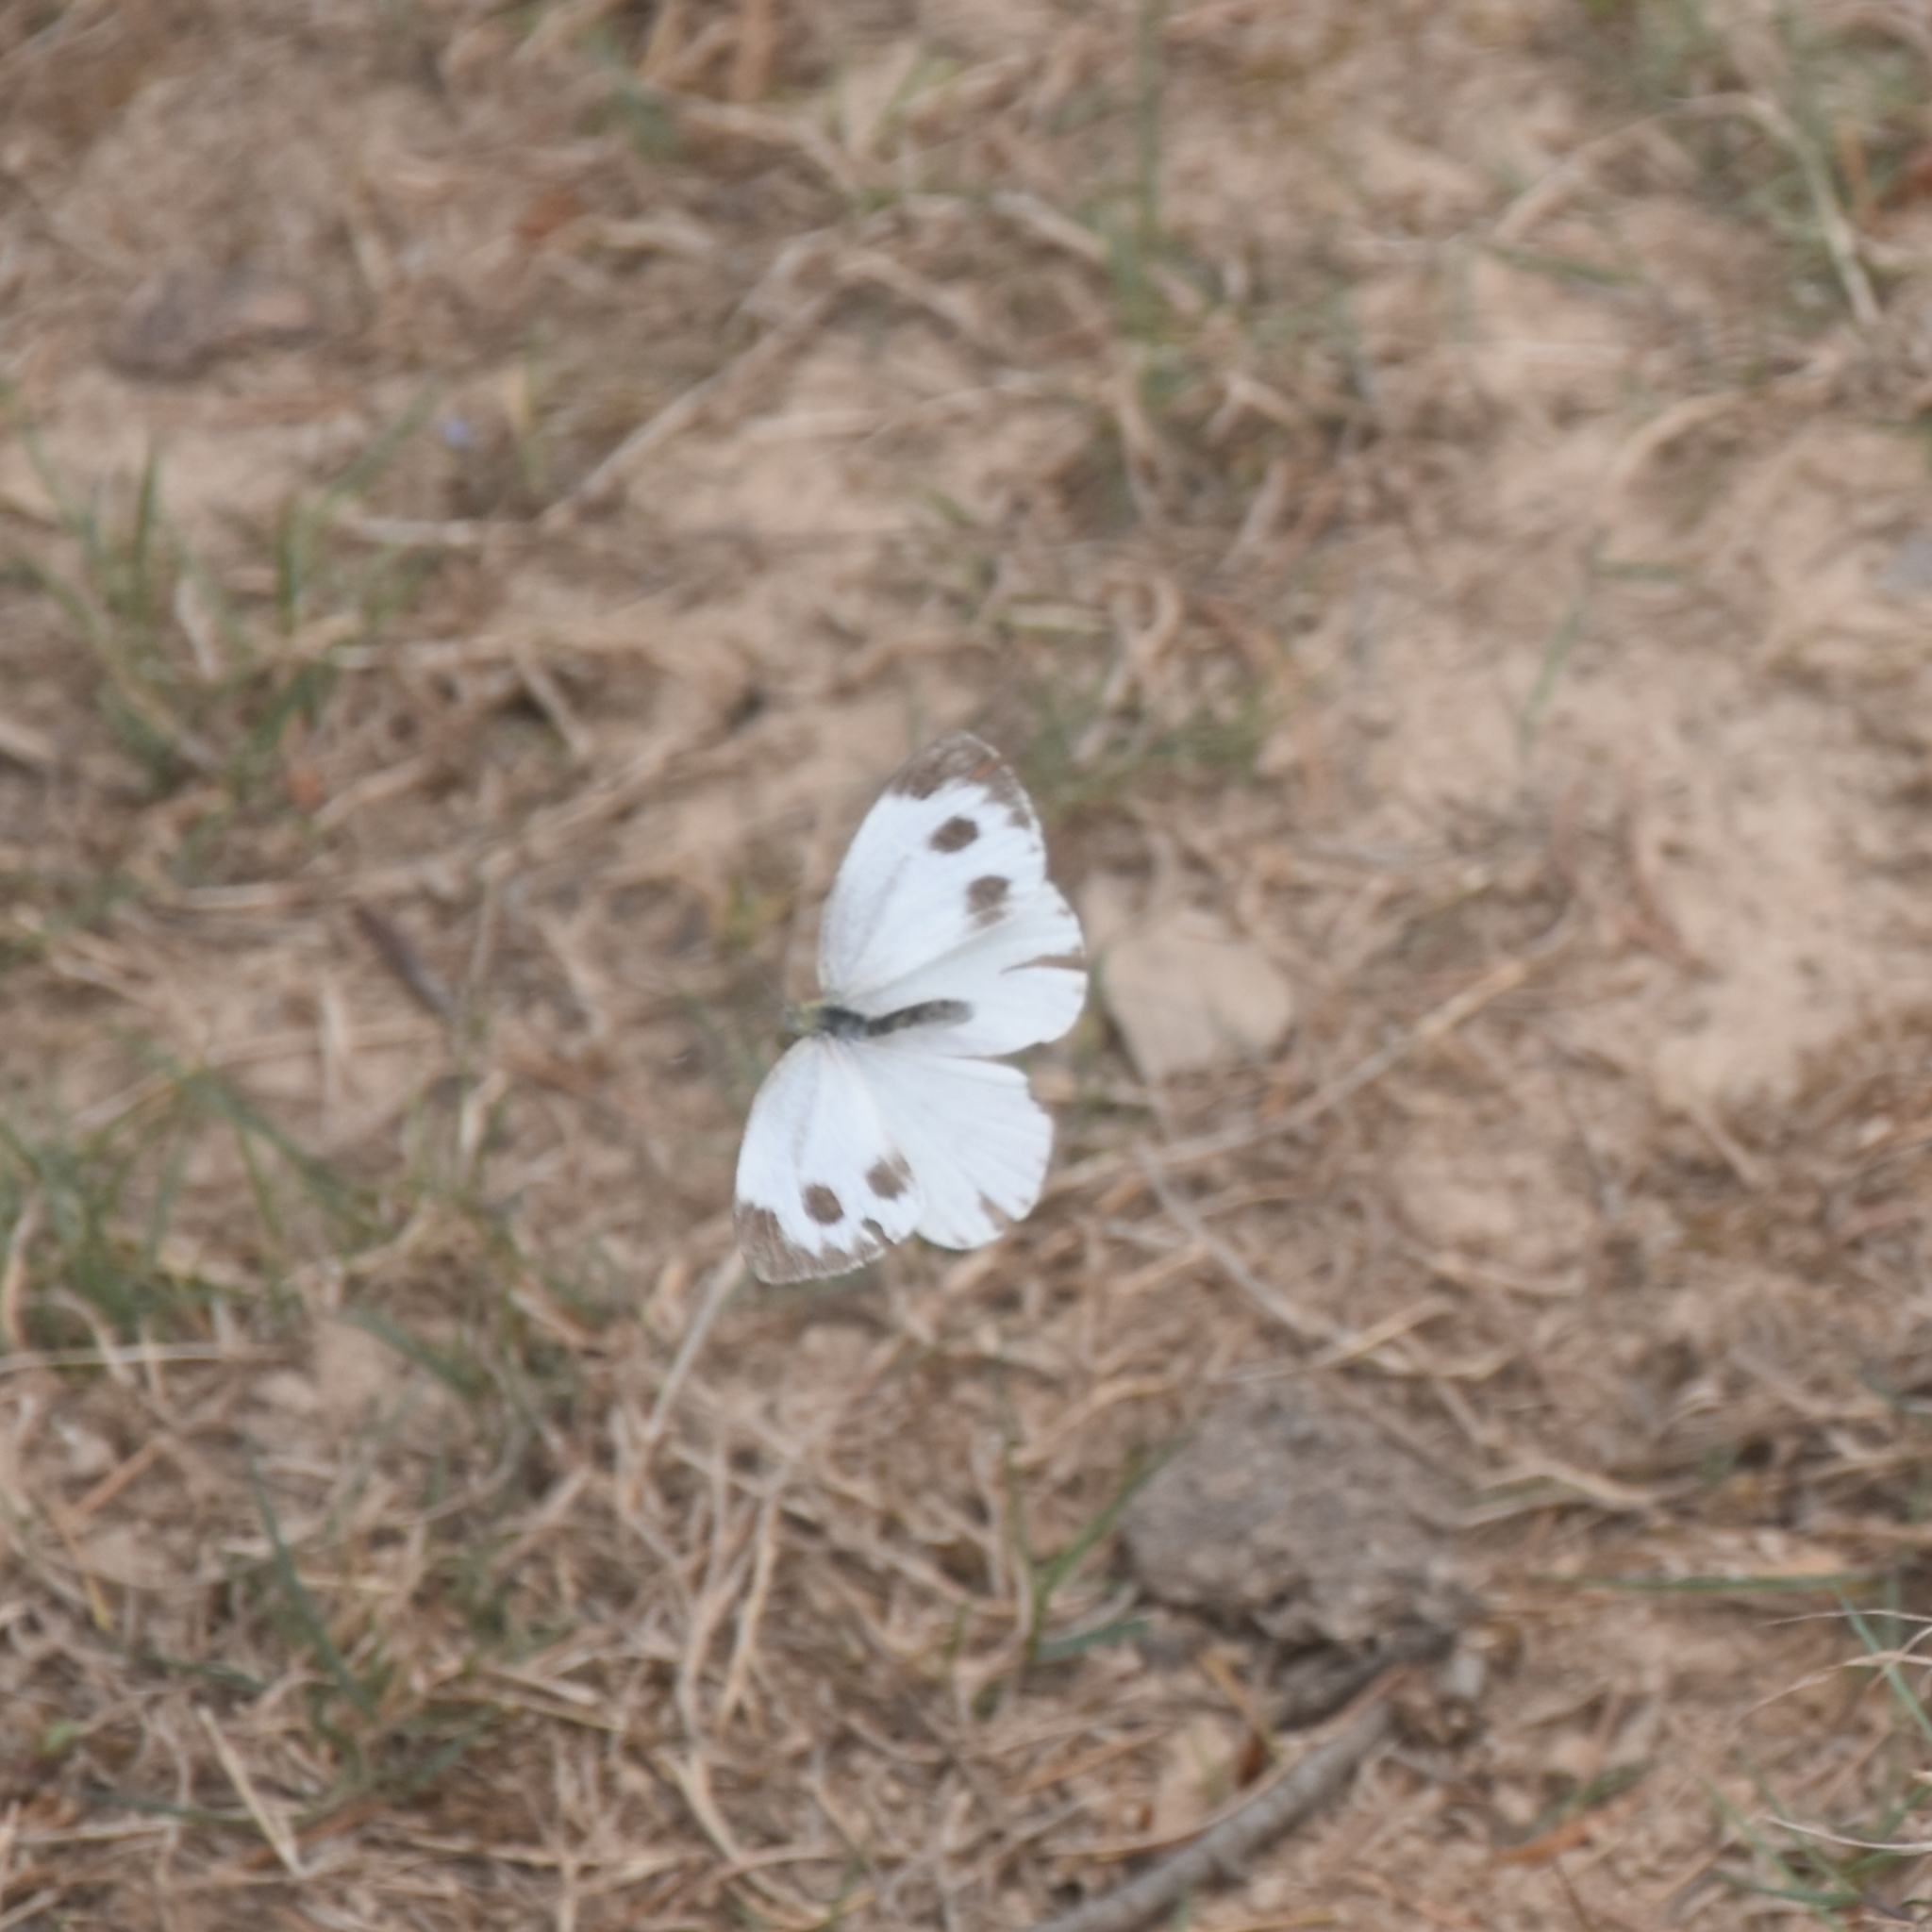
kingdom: Animalia
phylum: Arthropoda
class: Insecta
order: Lepidoptera
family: Pieridae
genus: Pieris
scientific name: Pieris canidia
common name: Indian cabbage white
